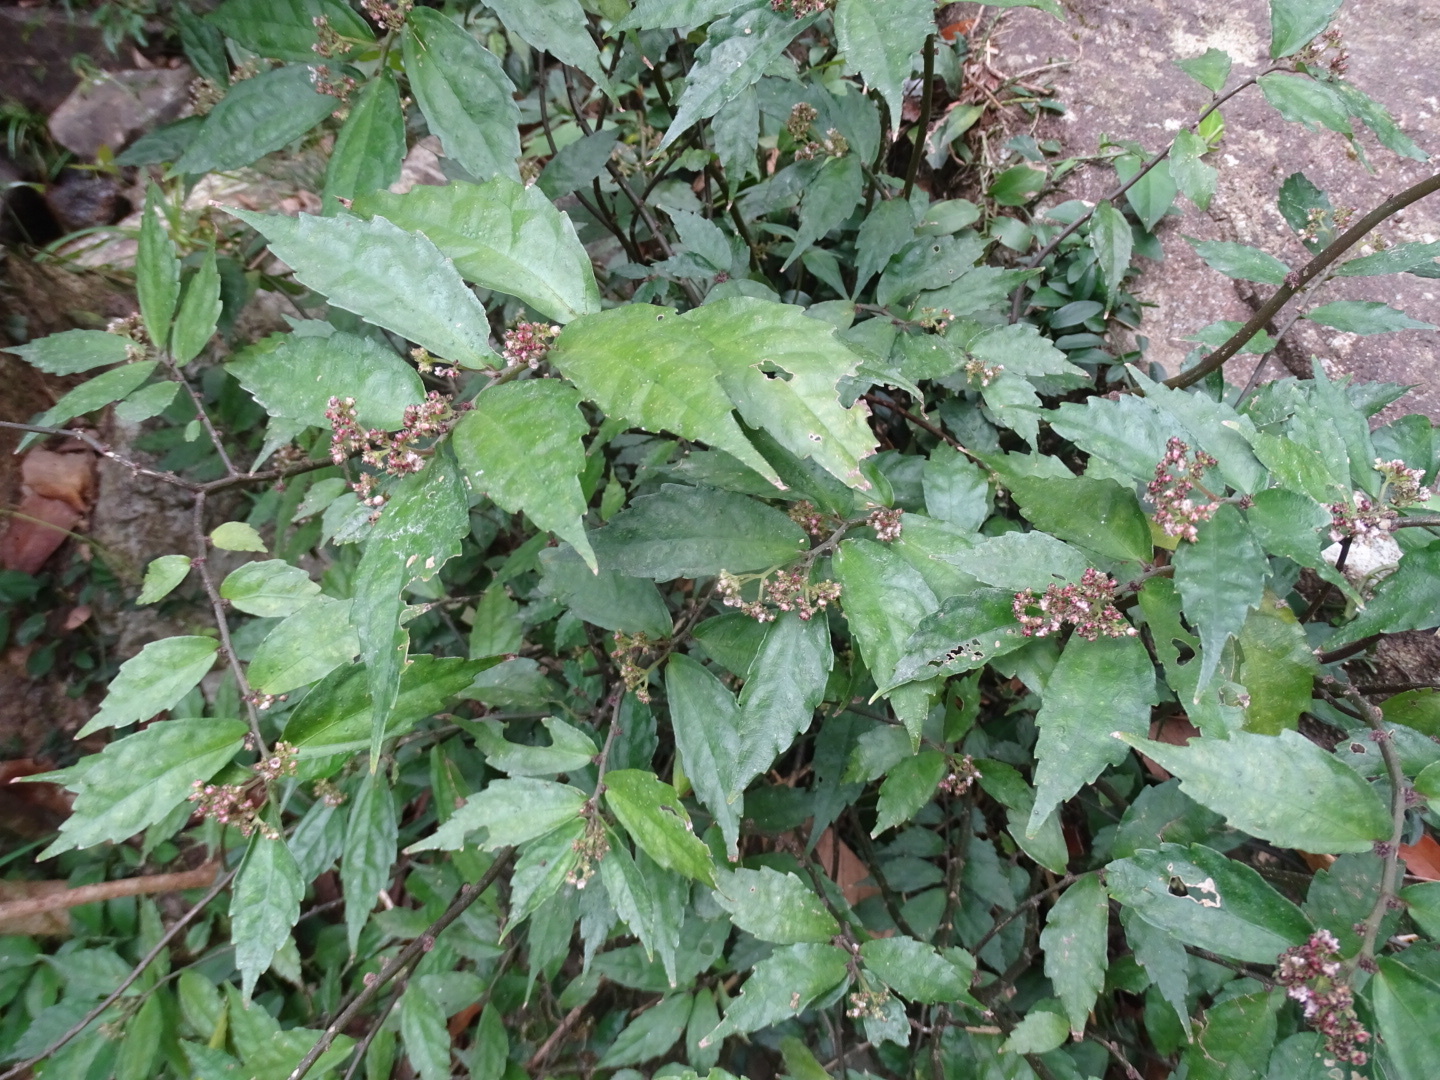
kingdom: Plantae
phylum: Tracheophyta
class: Magnoliopsida
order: Rosales
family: Urticaceae
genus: Elatostema
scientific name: Elatostema scabrum
